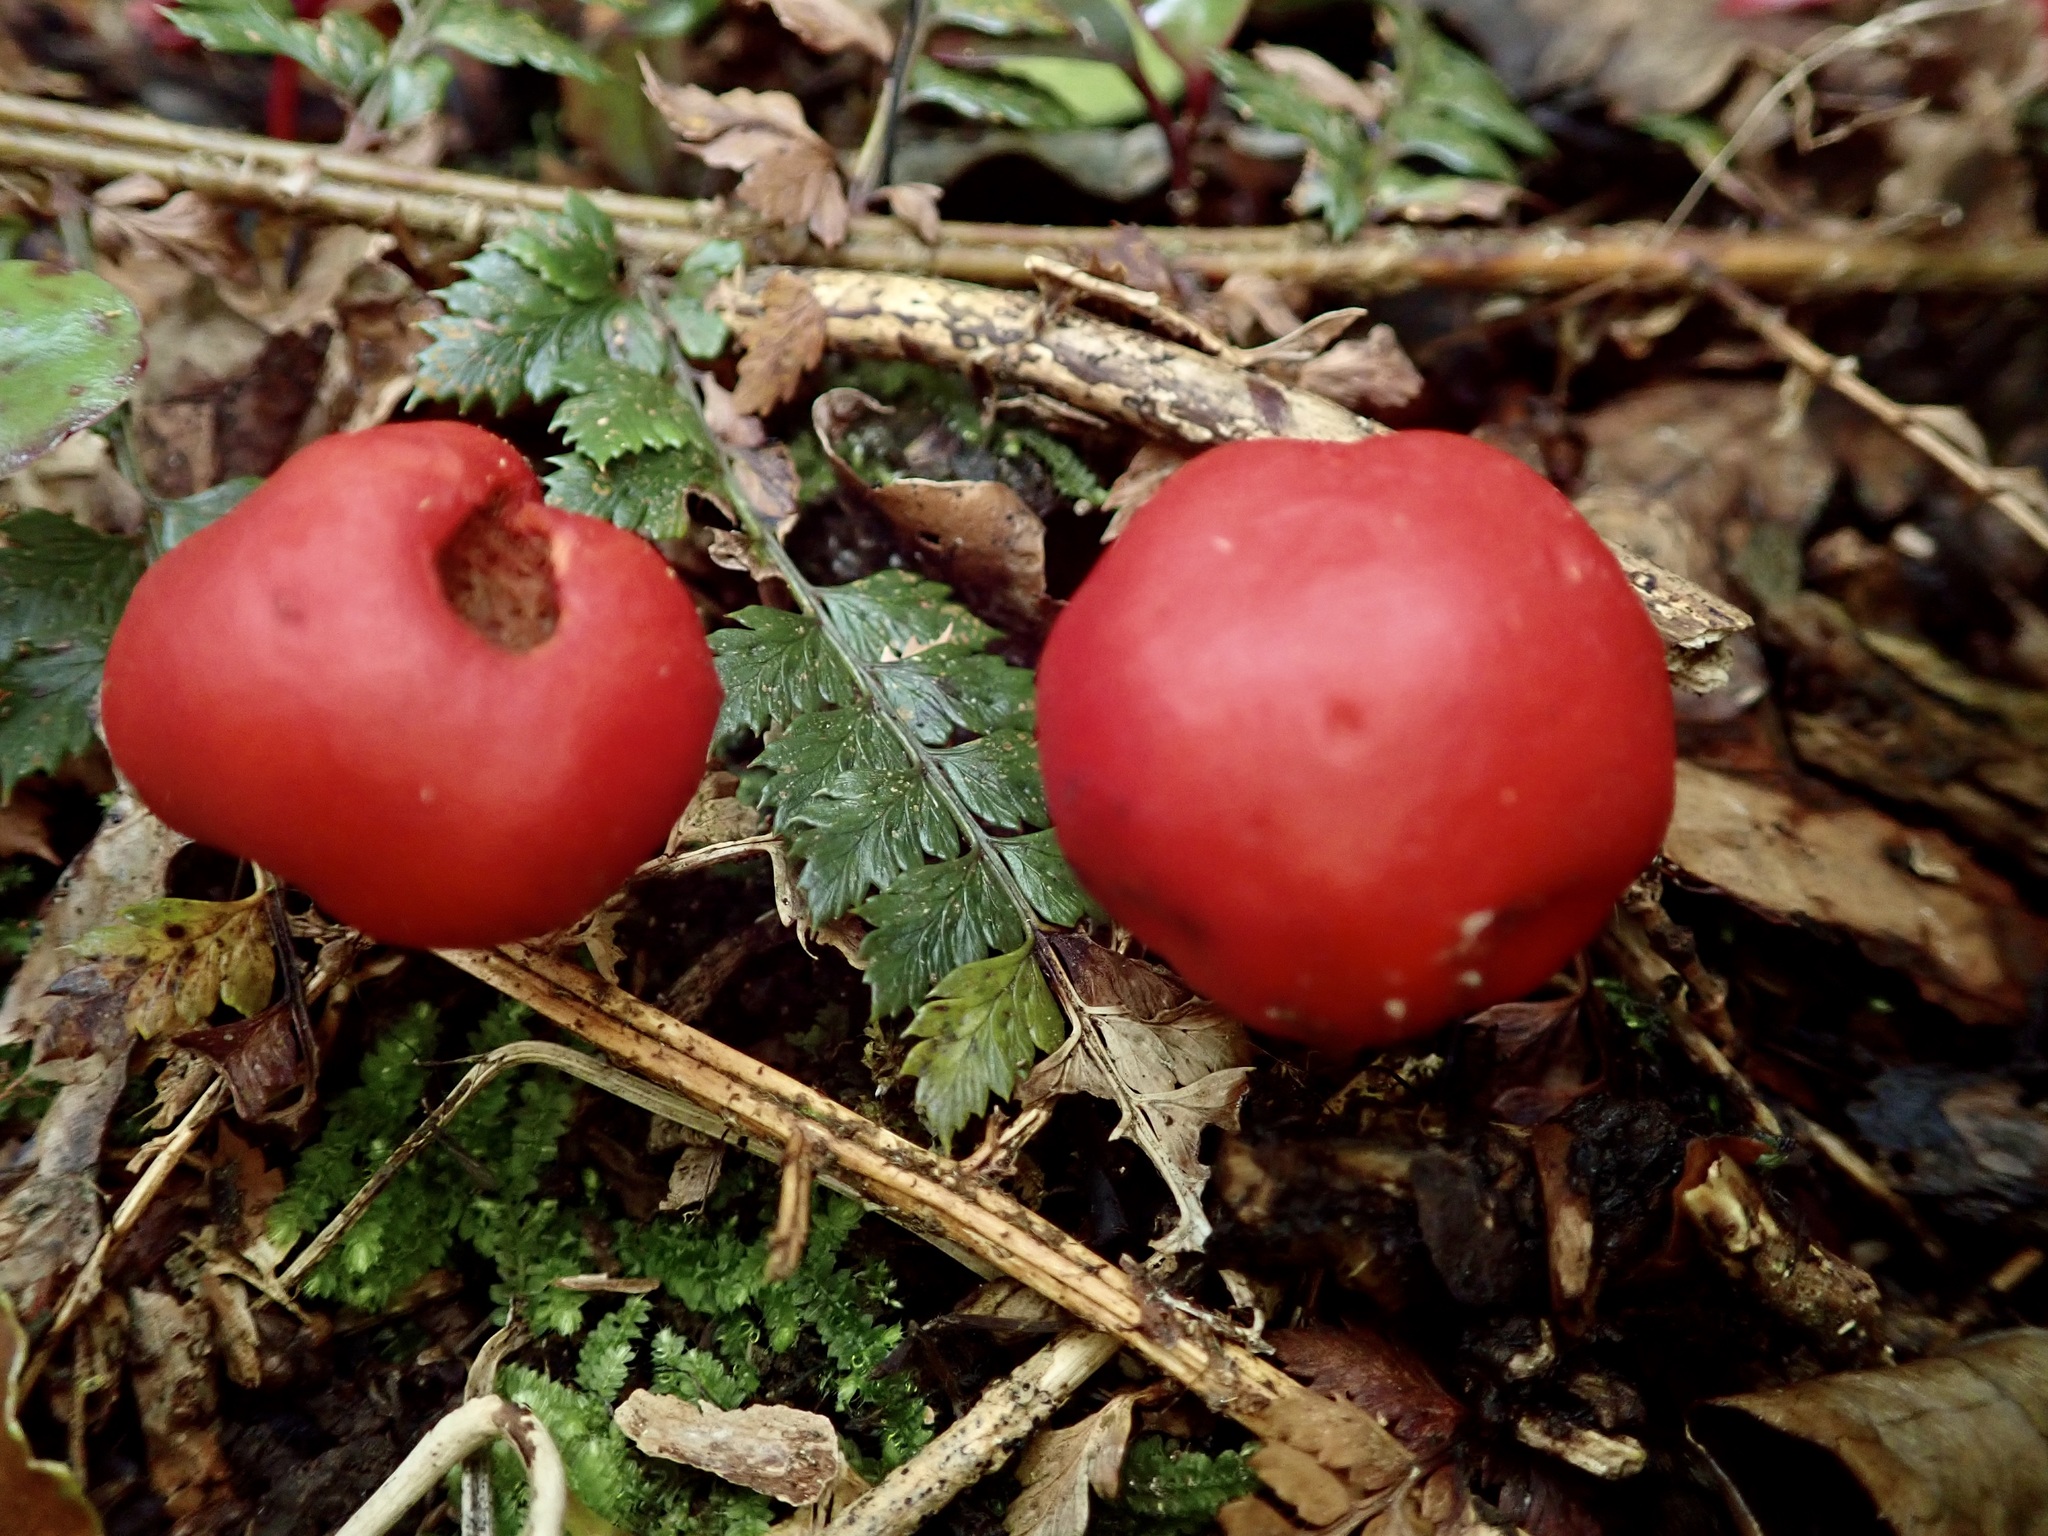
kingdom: Fungi
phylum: Basidiomycota
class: Agaricomycetes
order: Agaricales
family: Strophariaceae
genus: Leratiomyces
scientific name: Leratiomyces erythrocephalus
